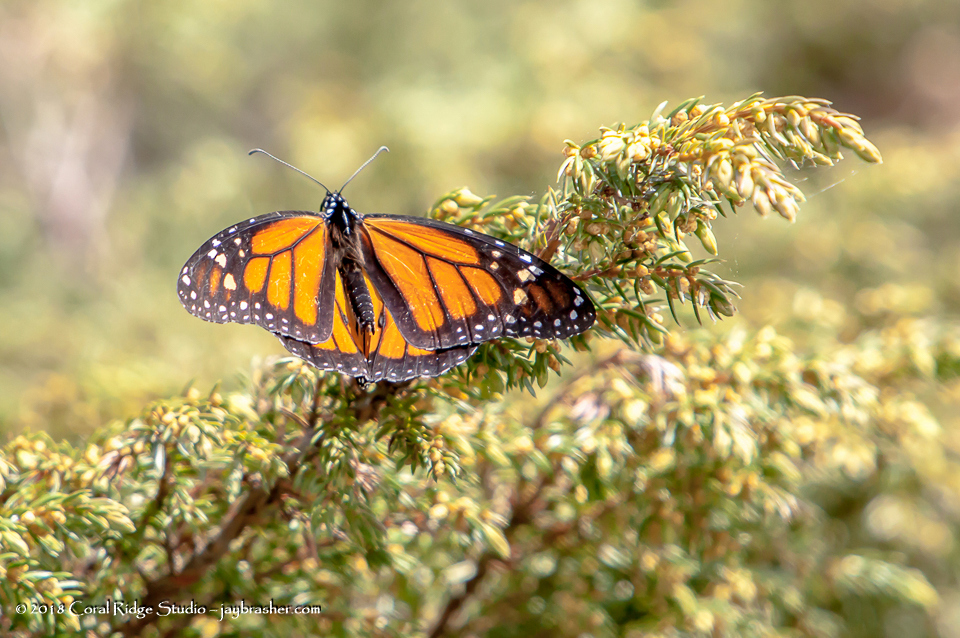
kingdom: Animalia
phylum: Arthropoda
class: Insecta
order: Lepidoptera
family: Nymphalidae
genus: Danaus
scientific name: Danaus plexippus
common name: Monarch
